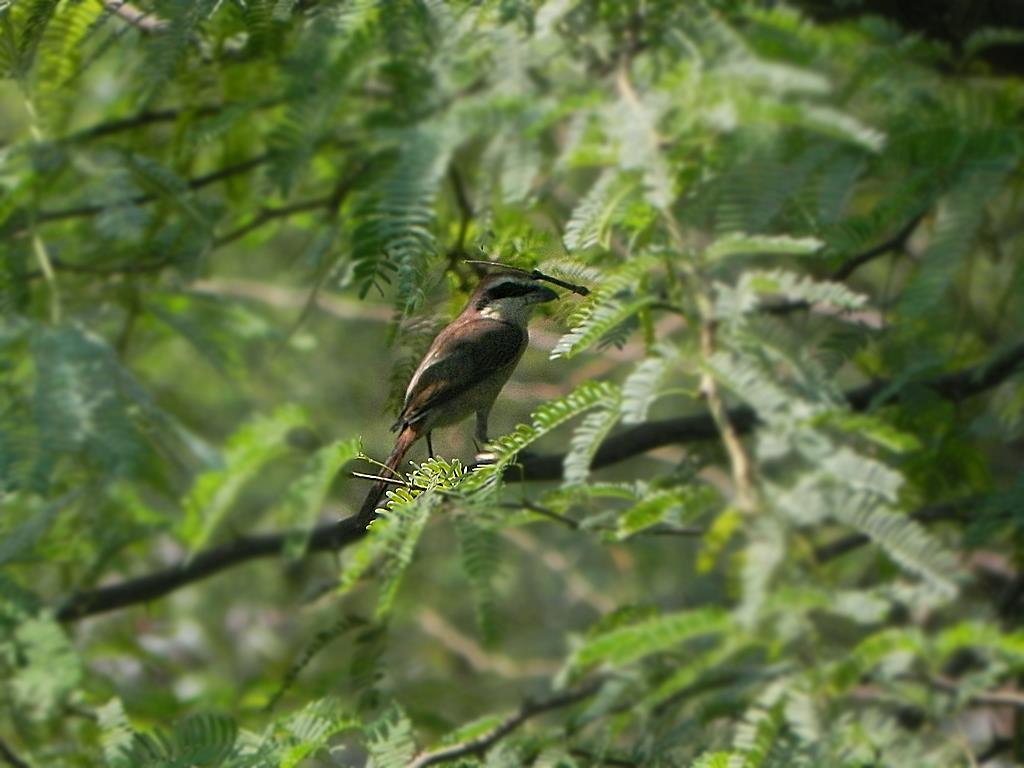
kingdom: Animalia
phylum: Chordata
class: Aves
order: Passeriformes
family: Laniidae
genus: Lanius
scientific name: Lanius cristatus
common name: Brown shrike
